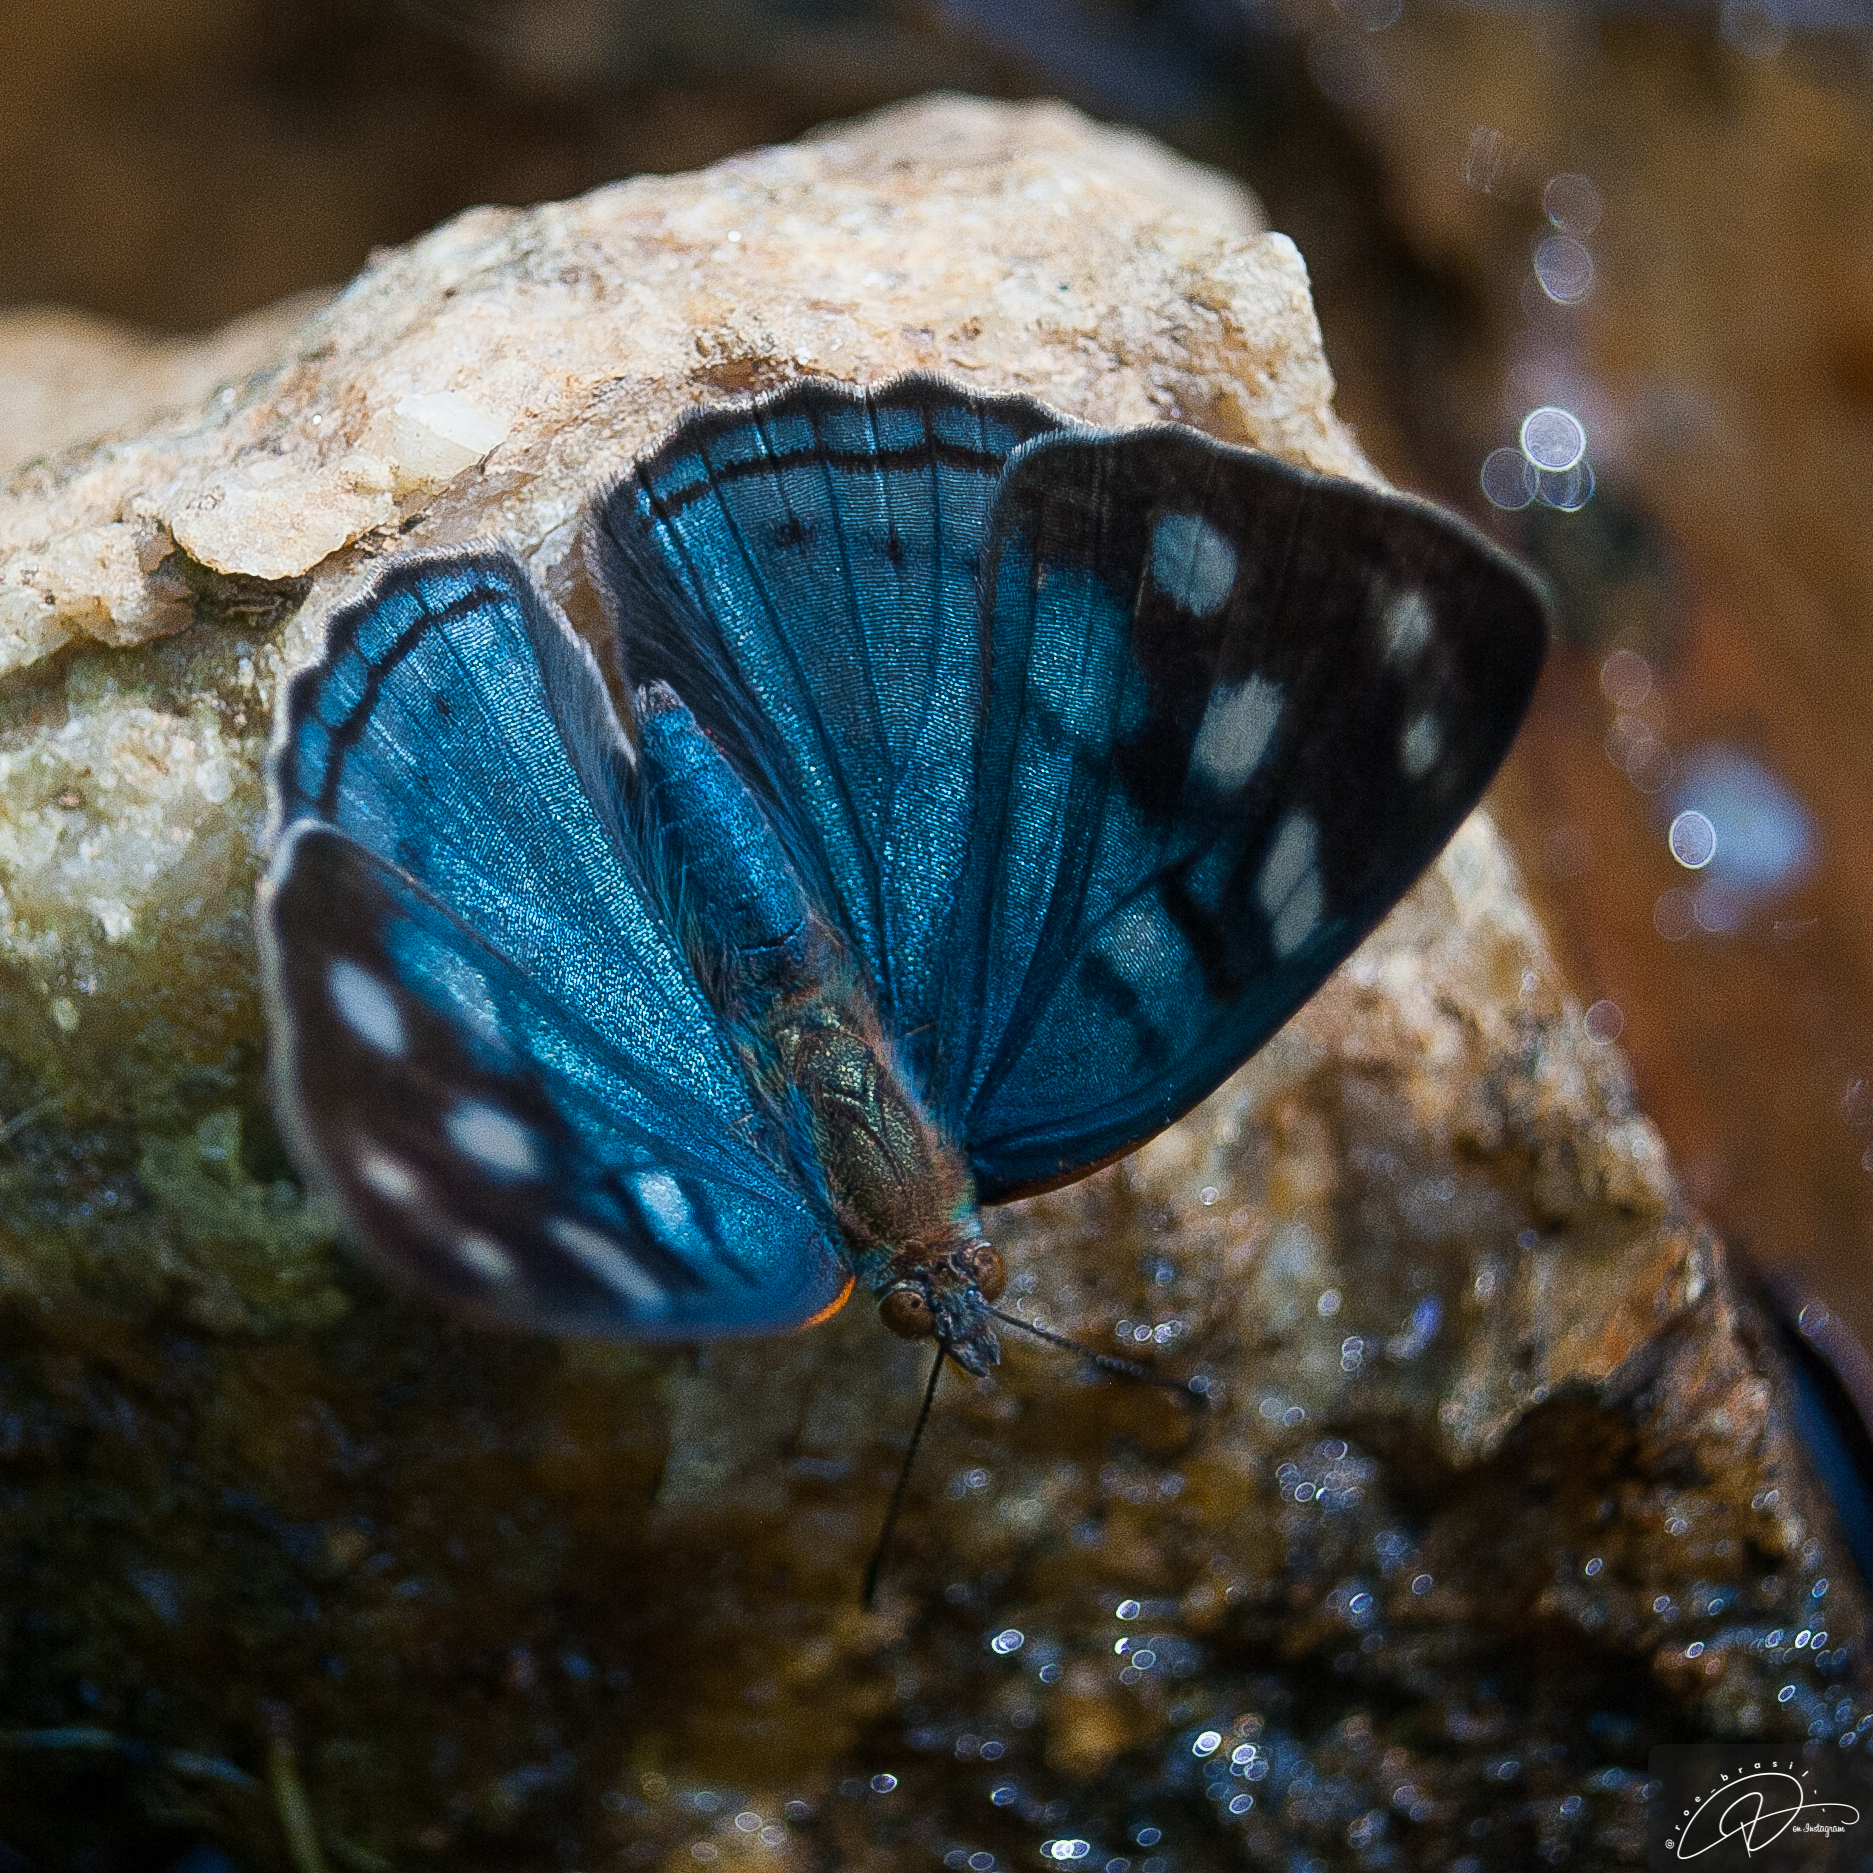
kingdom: Animalia
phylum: Arthropoda
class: Insecta
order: Lepidoptera
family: Nymphalidae
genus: Dynamine
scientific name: Dynamine tithia
